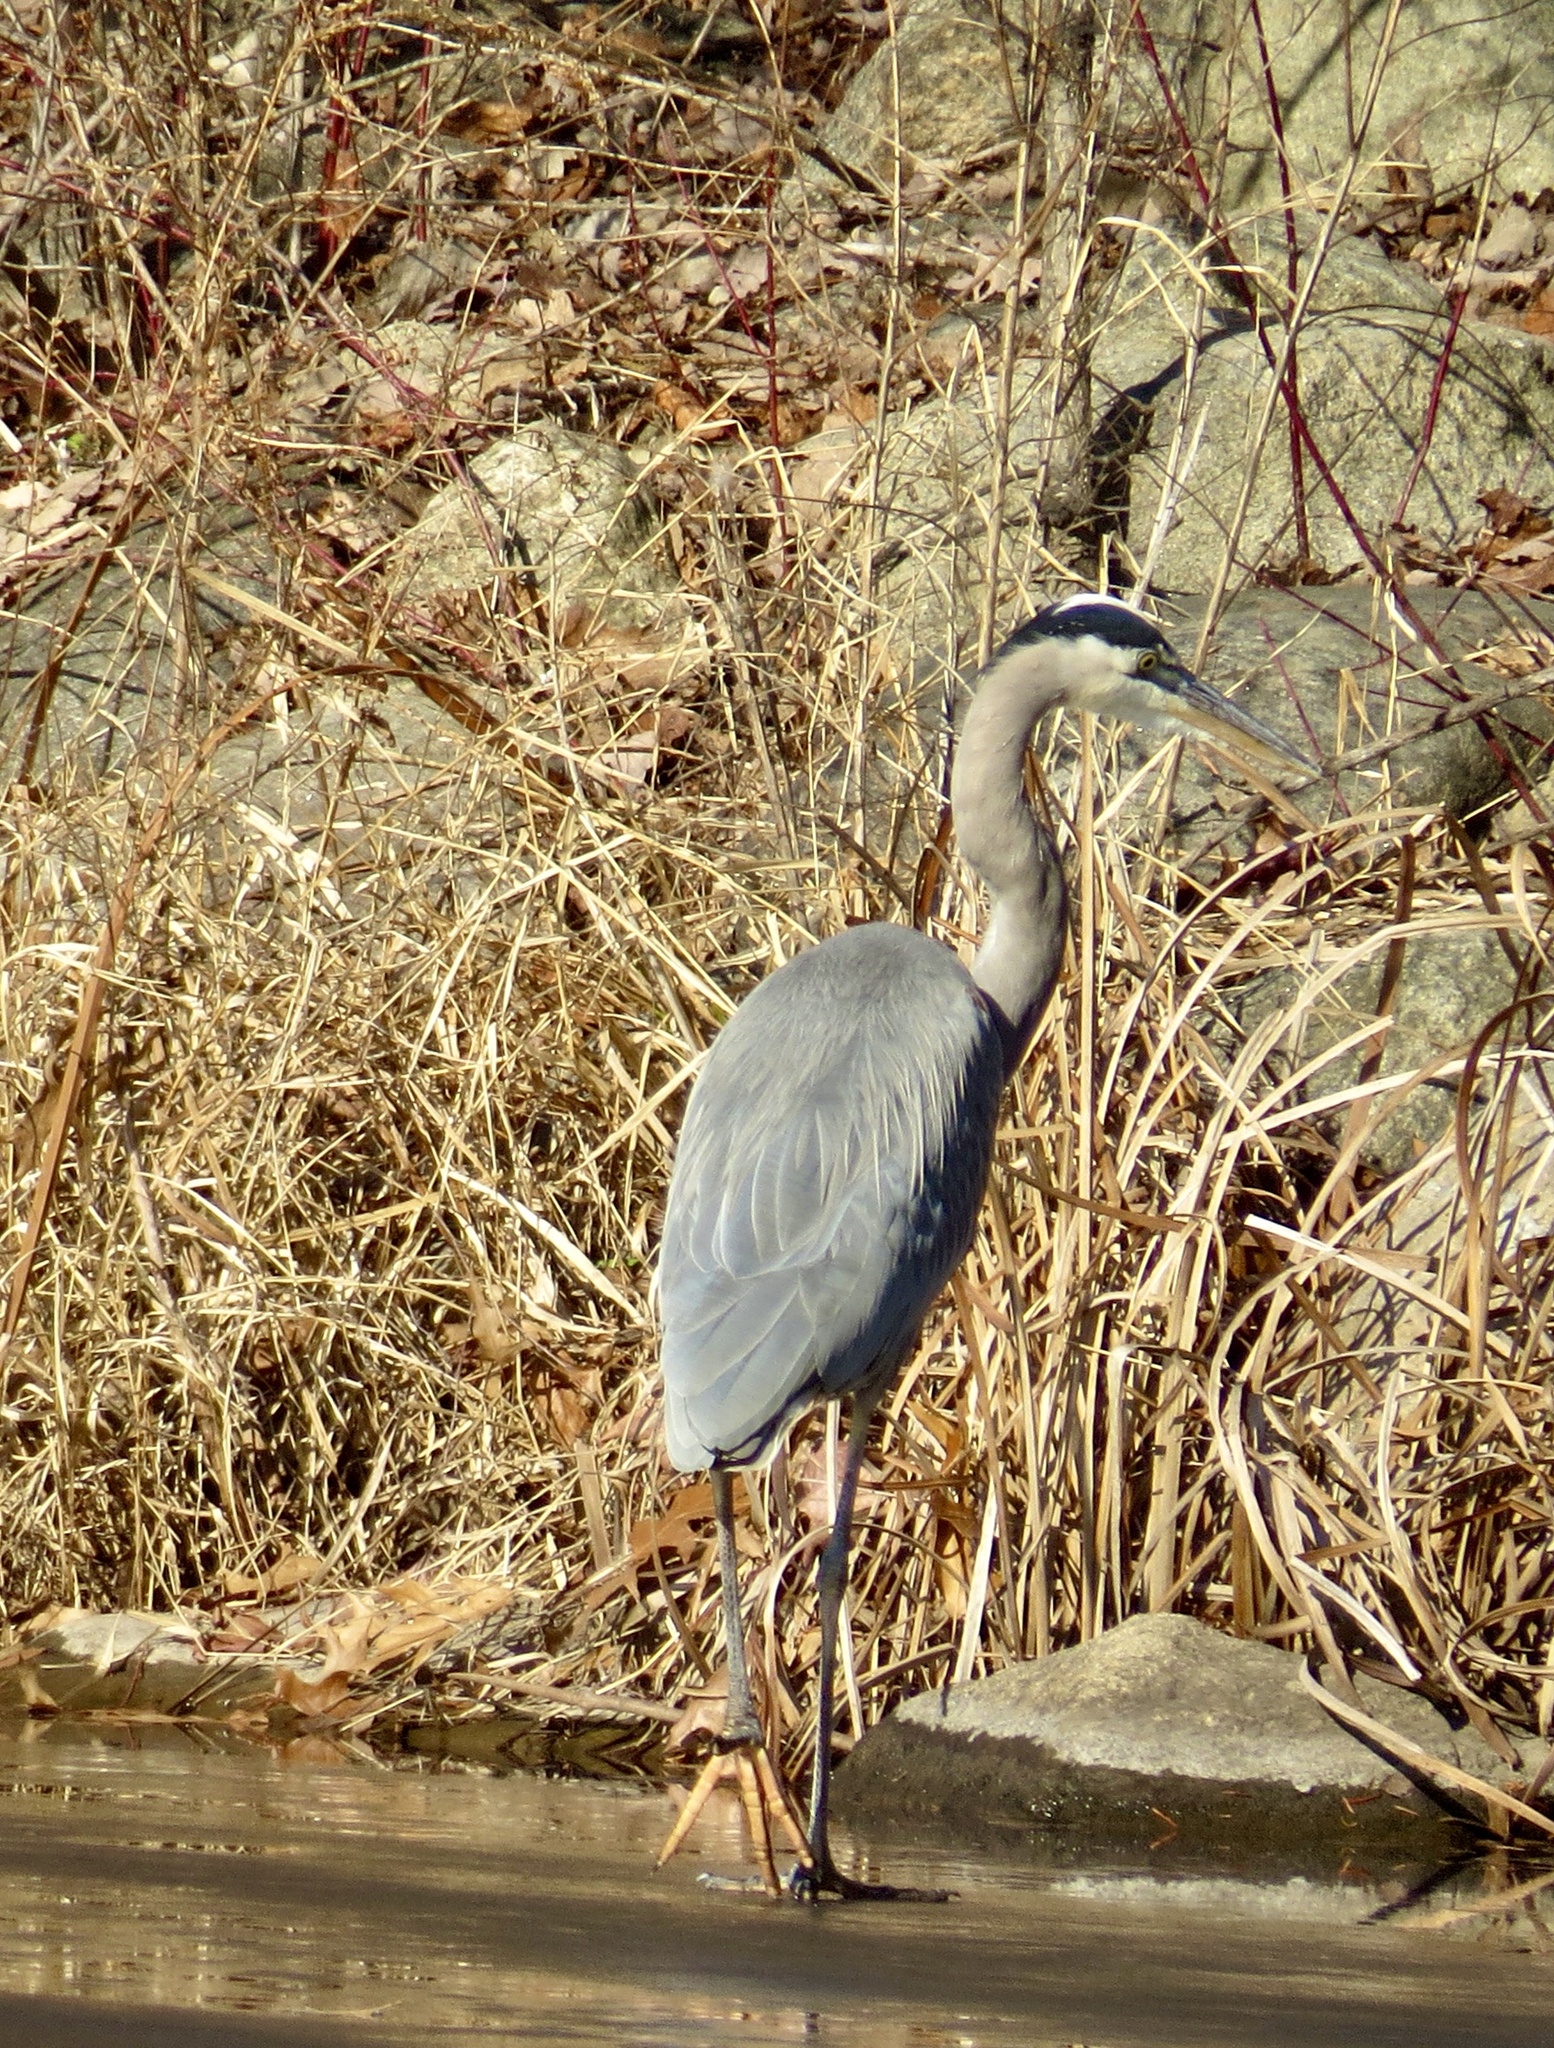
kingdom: Animalia
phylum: Chordata
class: Aves
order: Pelecaniformes
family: Ardeidae
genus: Ardea
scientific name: Ardea herodias
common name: Great blue heron
